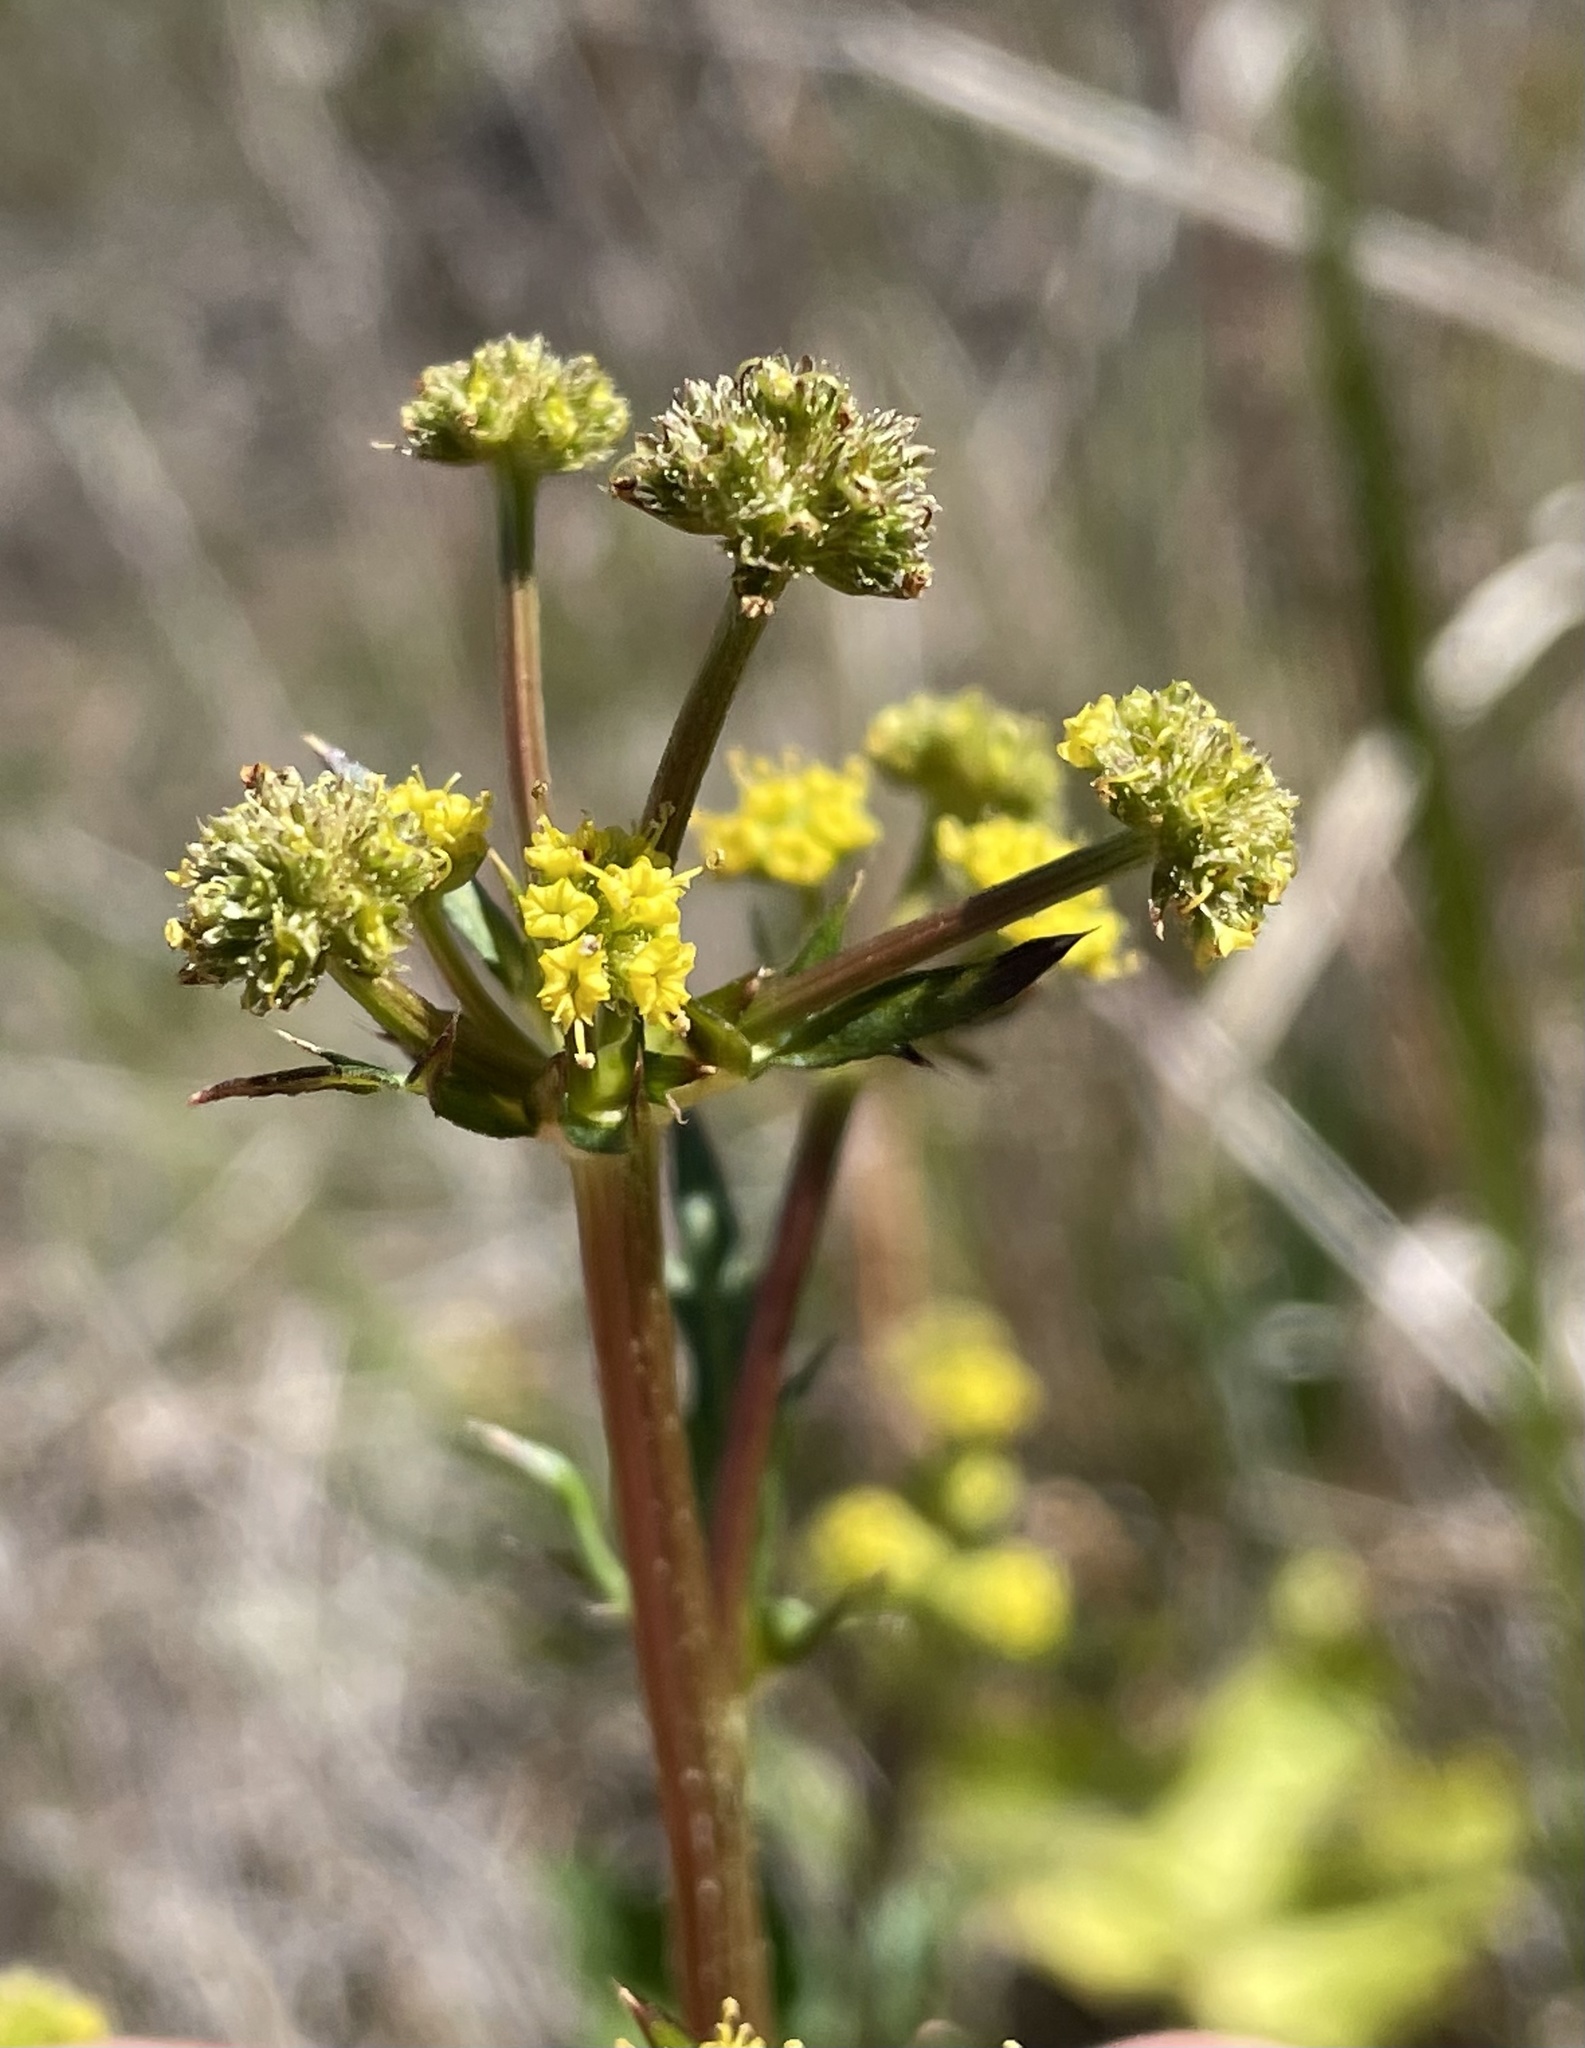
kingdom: Plantae
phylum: Tracheophyta
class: Magnoliopsida
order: Apiales
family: Apiaceae
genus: Sanicula
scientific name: Sanicula crassicaulis
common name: Western snakeroot
